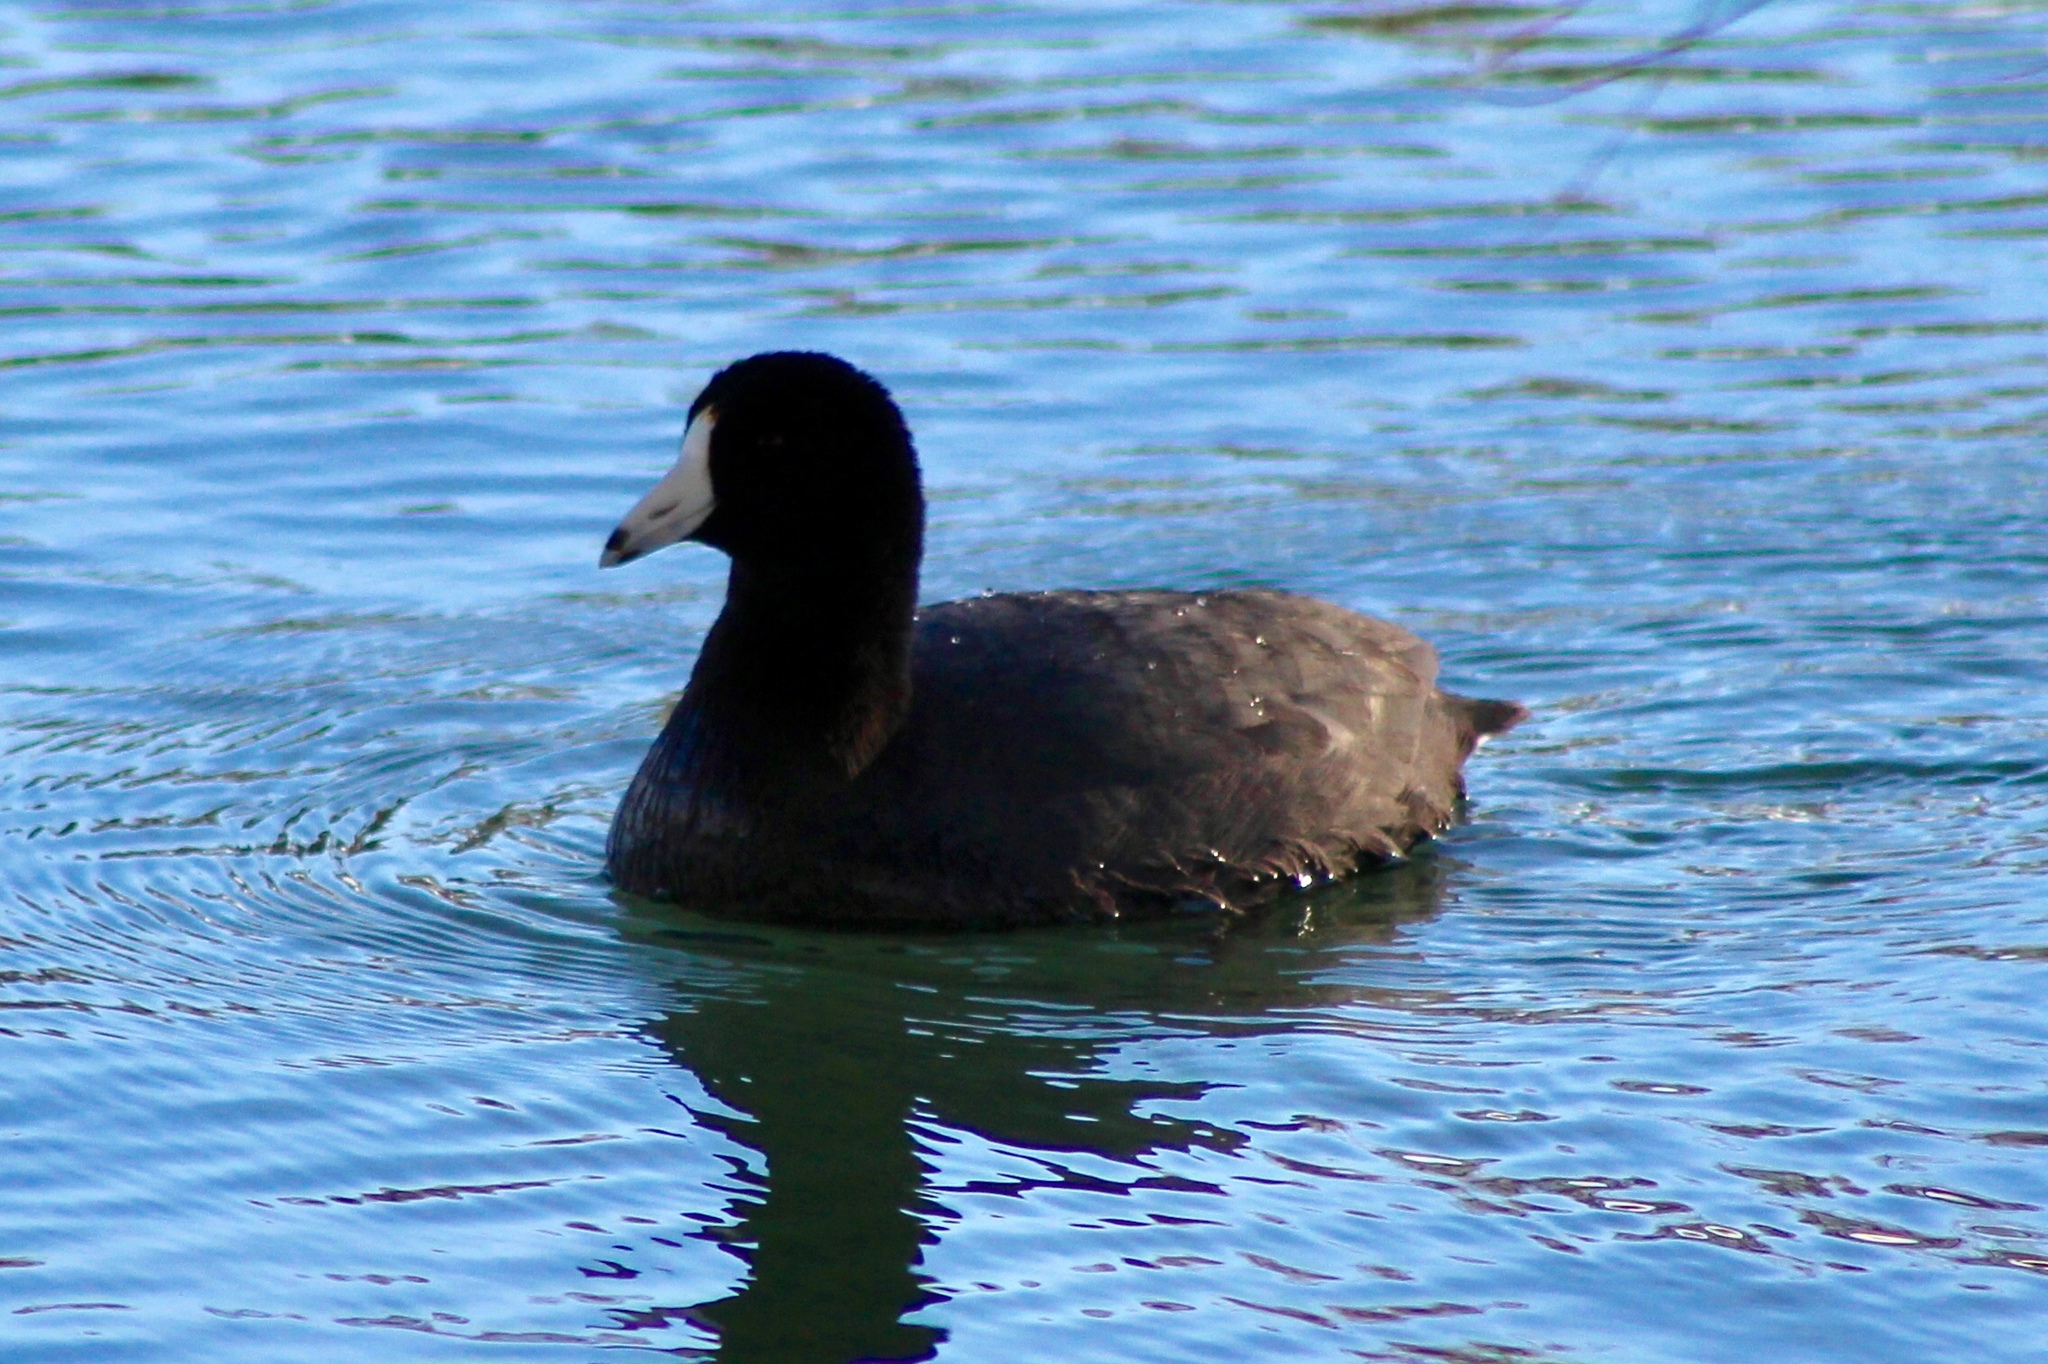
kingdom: Animalia
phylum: Chordata
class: Aves
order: Gruiformes
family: Rallidae
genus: Fulica
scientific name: Fulica americana
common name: American coot
